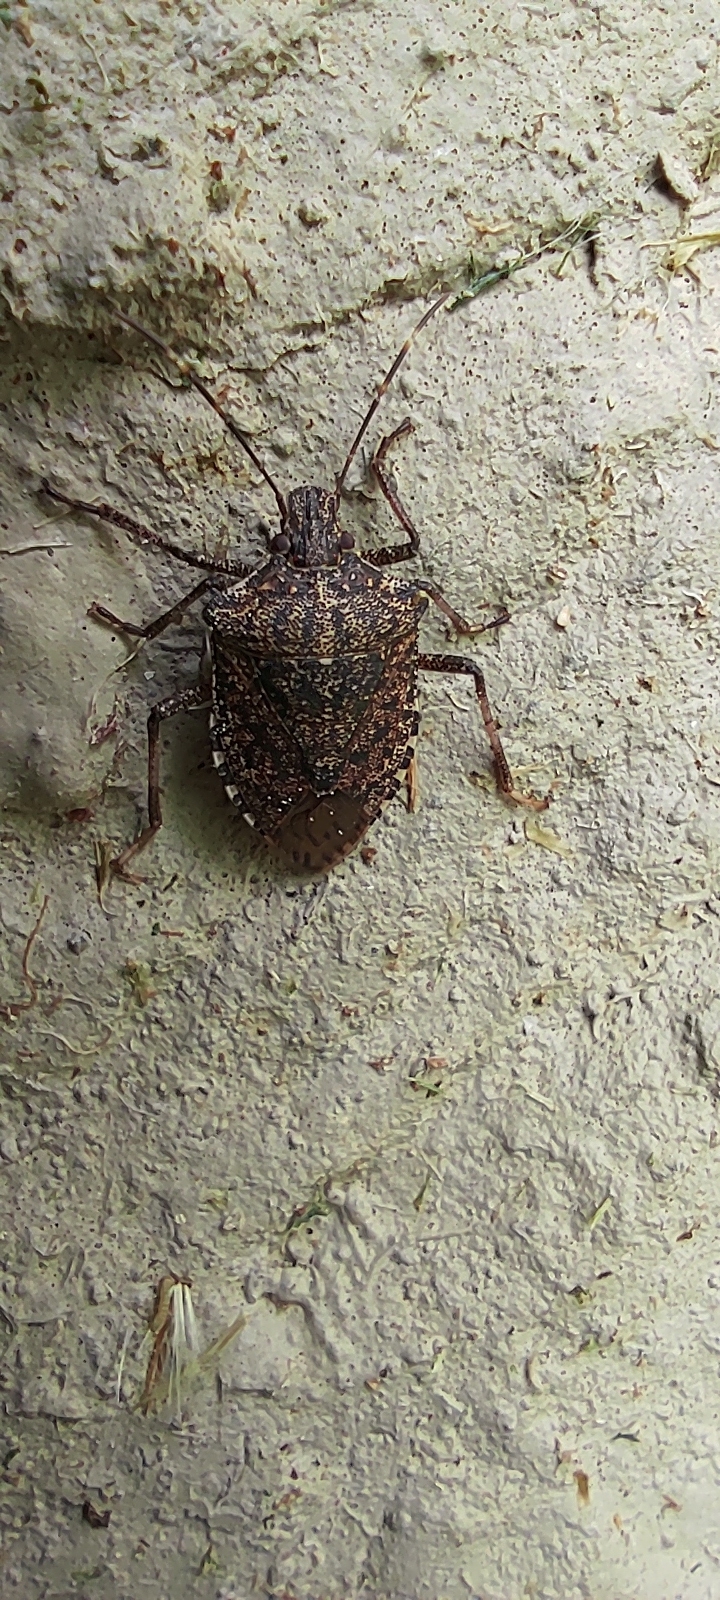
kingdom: Animalia
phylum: Arthropoda
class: Insecta
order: Hemiptera
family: Pentatomidae
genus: Halyomorpha
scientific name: Halyomorpha halys
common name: Brown marmorated stink bug
